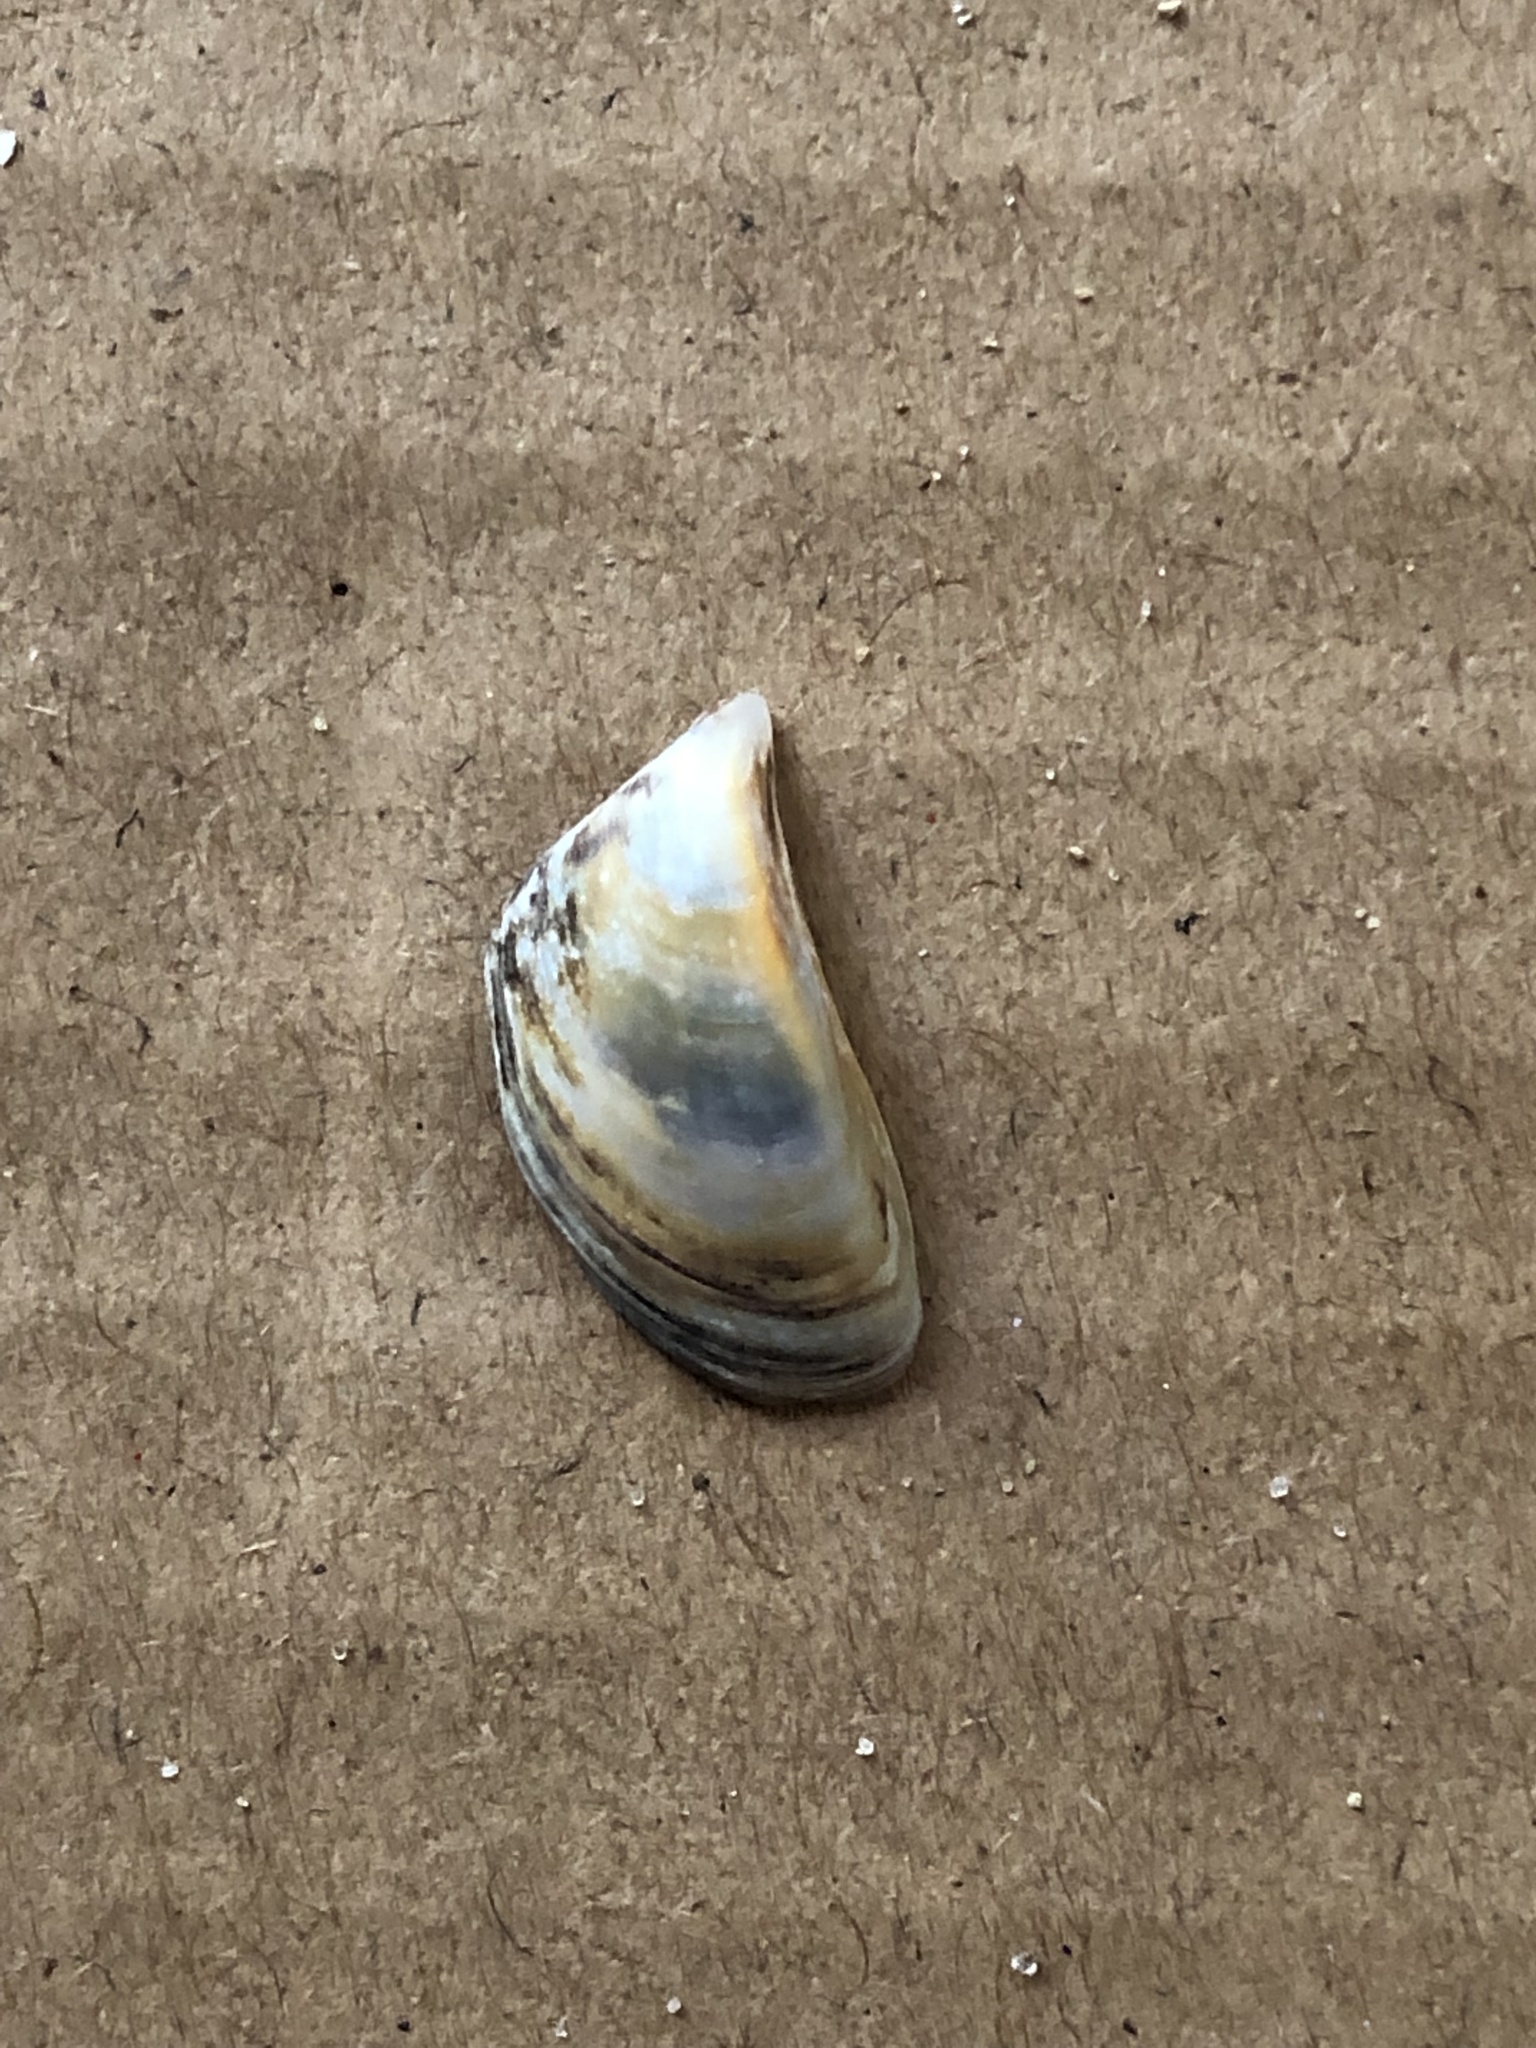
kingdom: Animalia
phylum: Mollusca
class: Bivalvia
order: Myida
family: Dreissenidae
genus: Dreissena
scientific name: Dreissena polymorpha
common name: Zebra mussel
